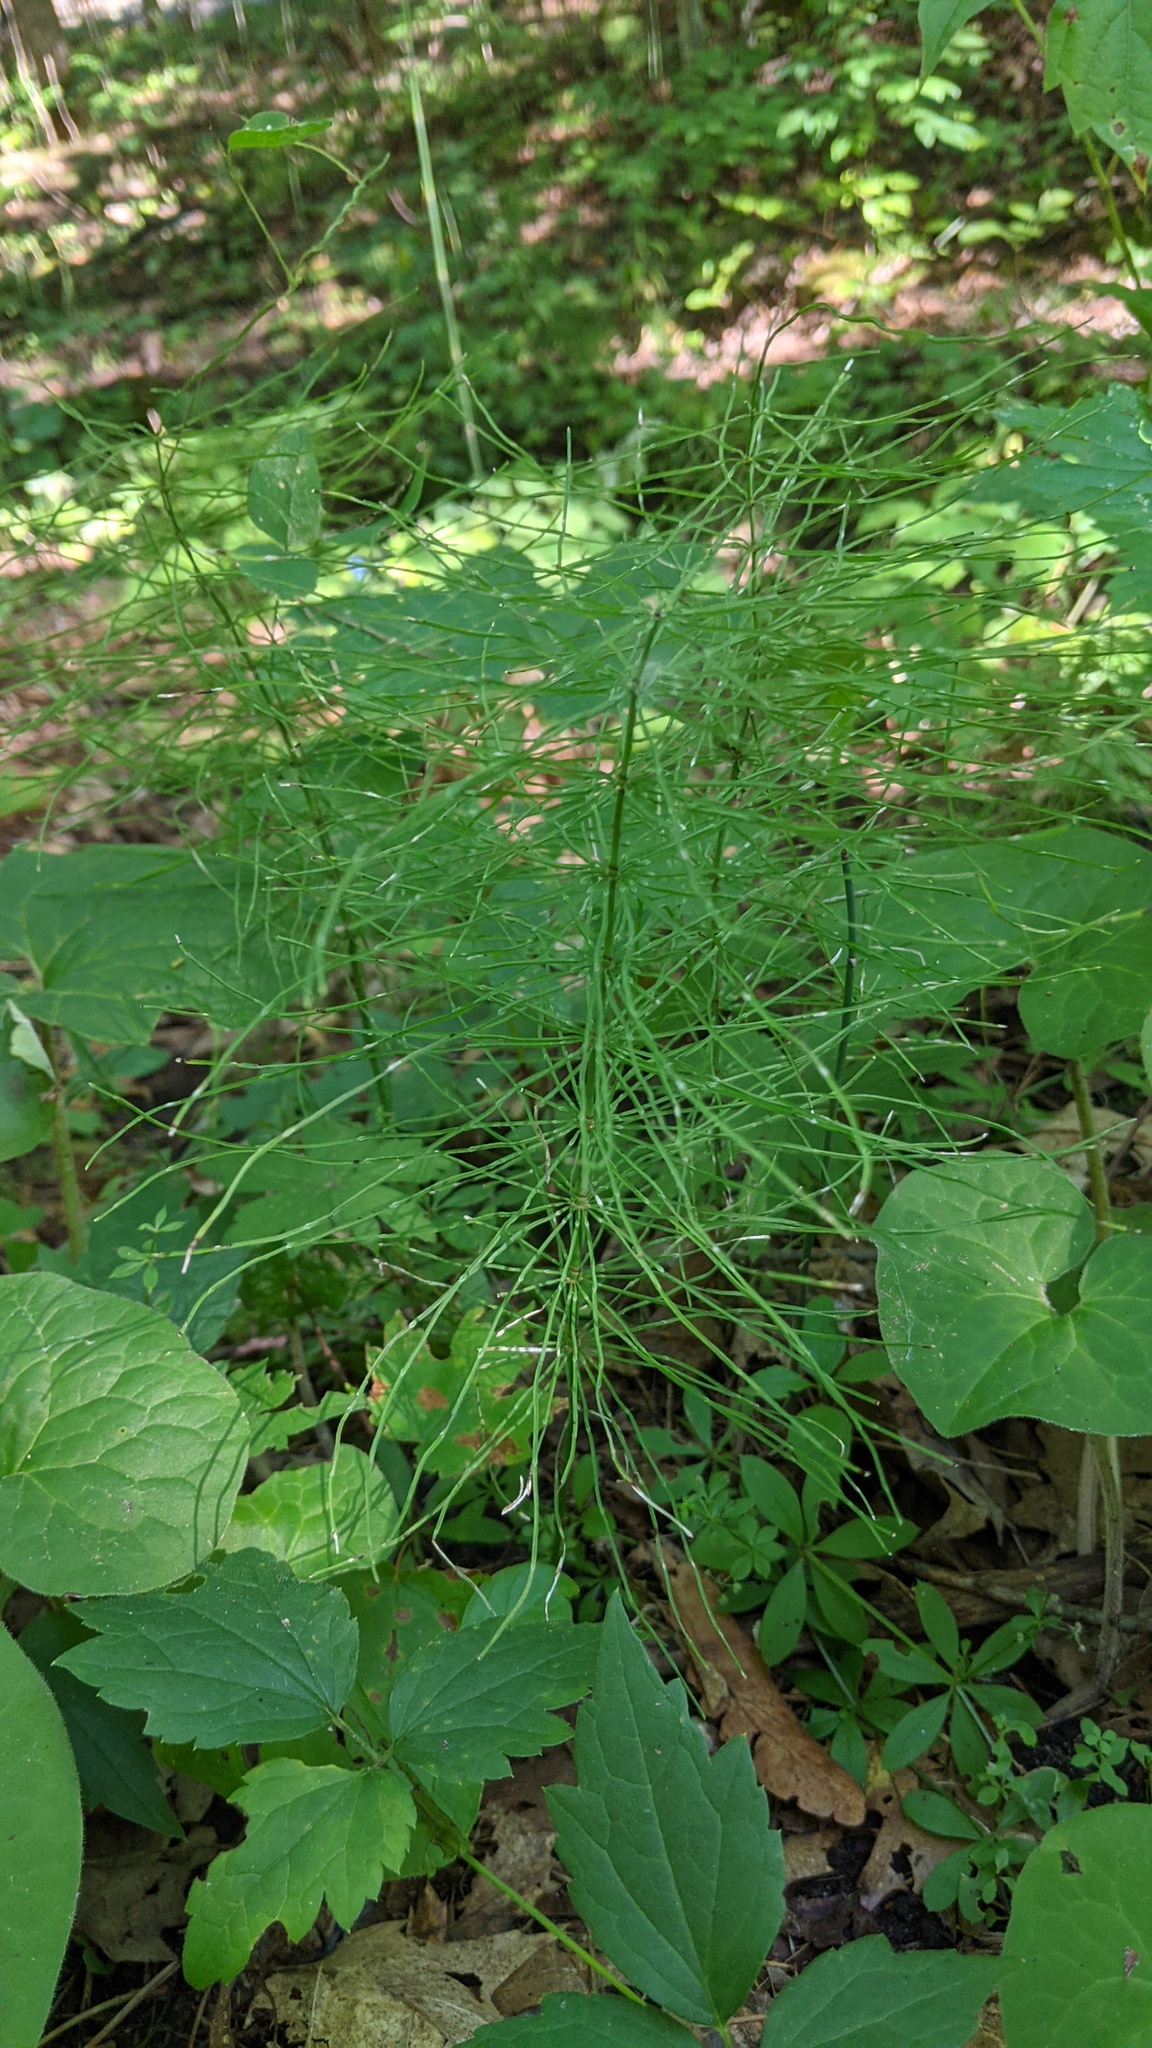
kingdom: Plantae
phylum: Tracheophyta
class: Polypodiopsida
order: Equisetales
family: Equisetaceae
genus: Equisetum
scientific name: Equisetum pratense
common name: Meadow horsetail
